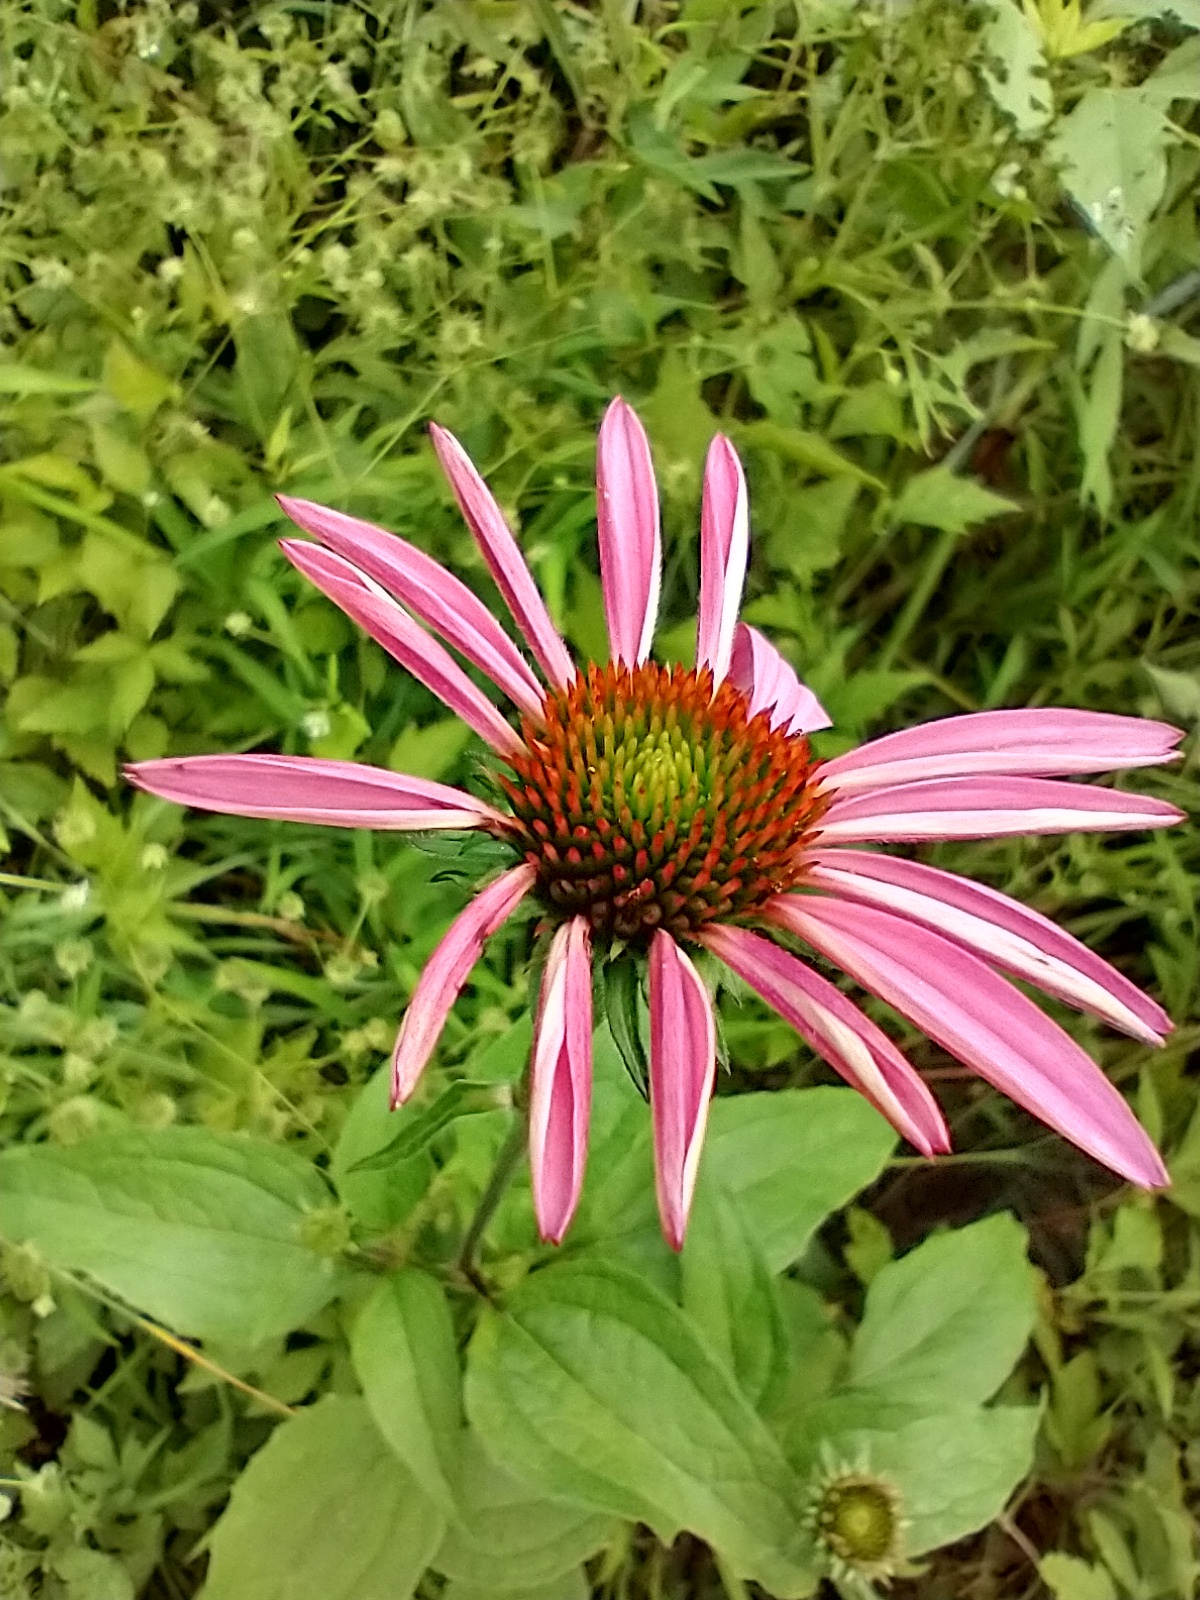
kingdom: Plantae
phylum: Tracheophyta
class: Magnoliopsida
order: Asterales
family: Asteraceae
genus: Echinacea
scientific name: Echinacea purpurea
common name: Broad-leaved purple coneflower
